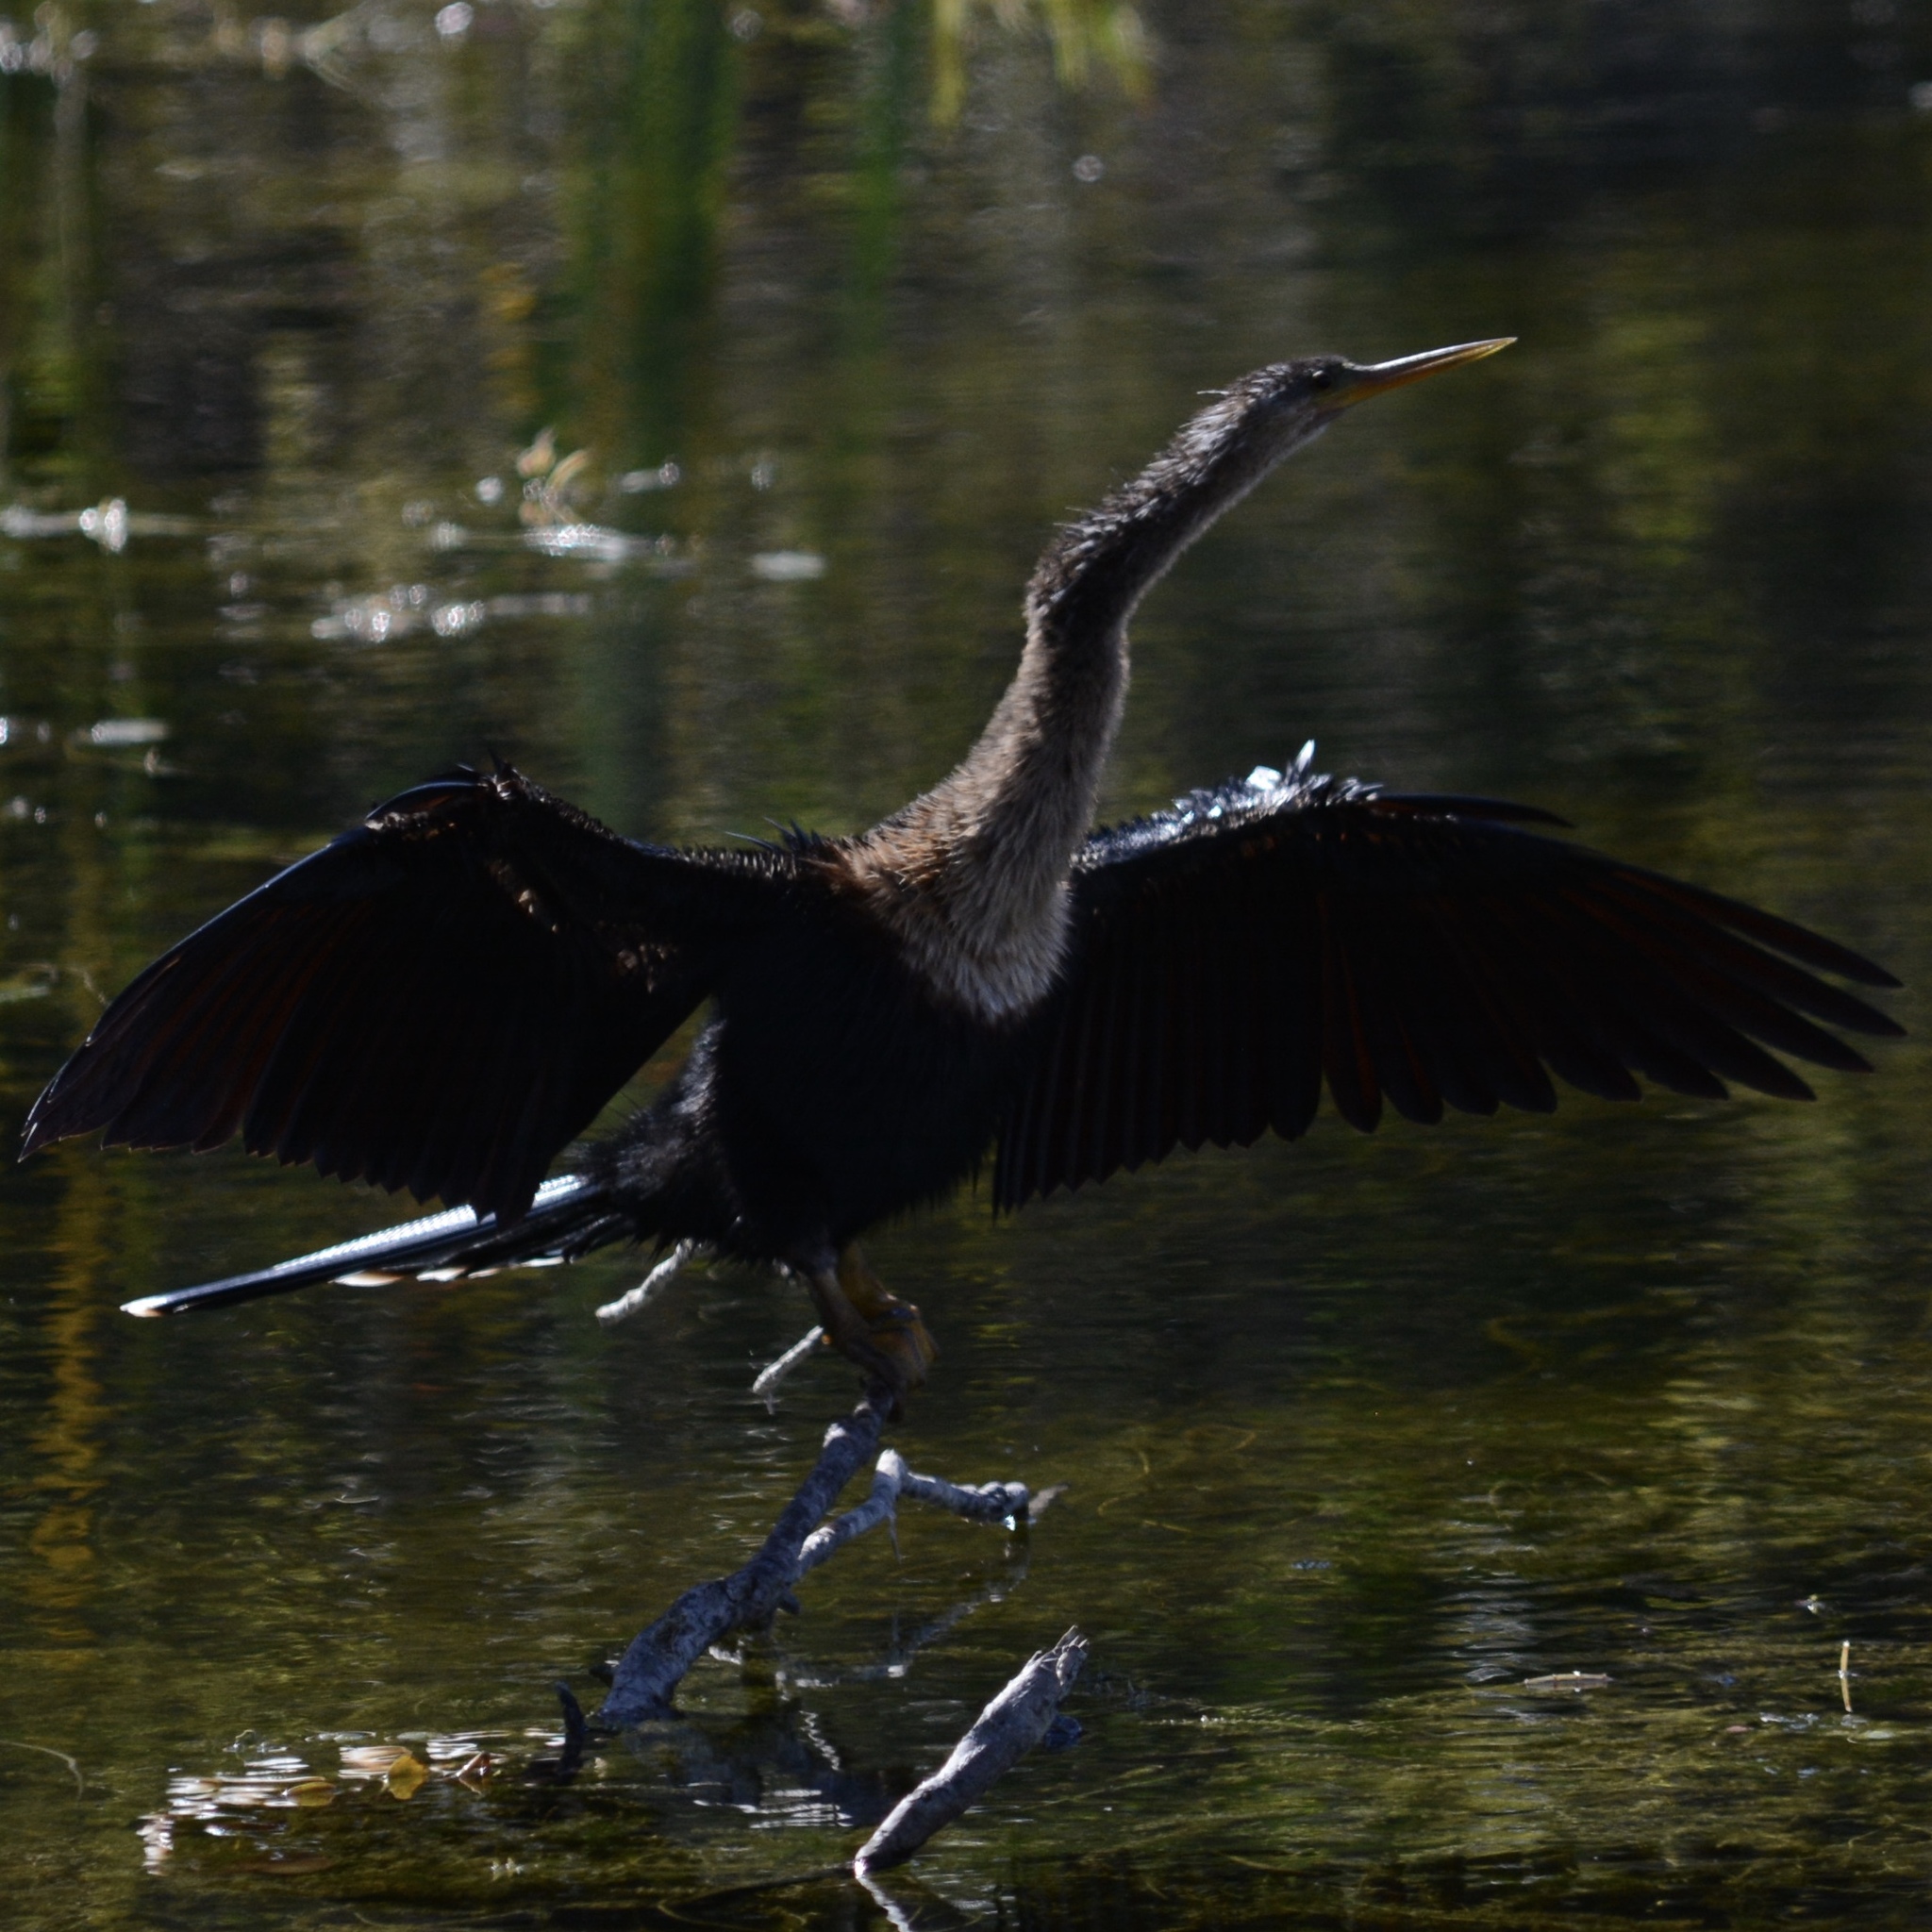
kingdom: Animalia
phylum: Chordata
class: Aves
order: Suliformes
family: Anhingidae
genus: Anhinga
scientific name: Anhinga anhinga
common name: Anhinga
